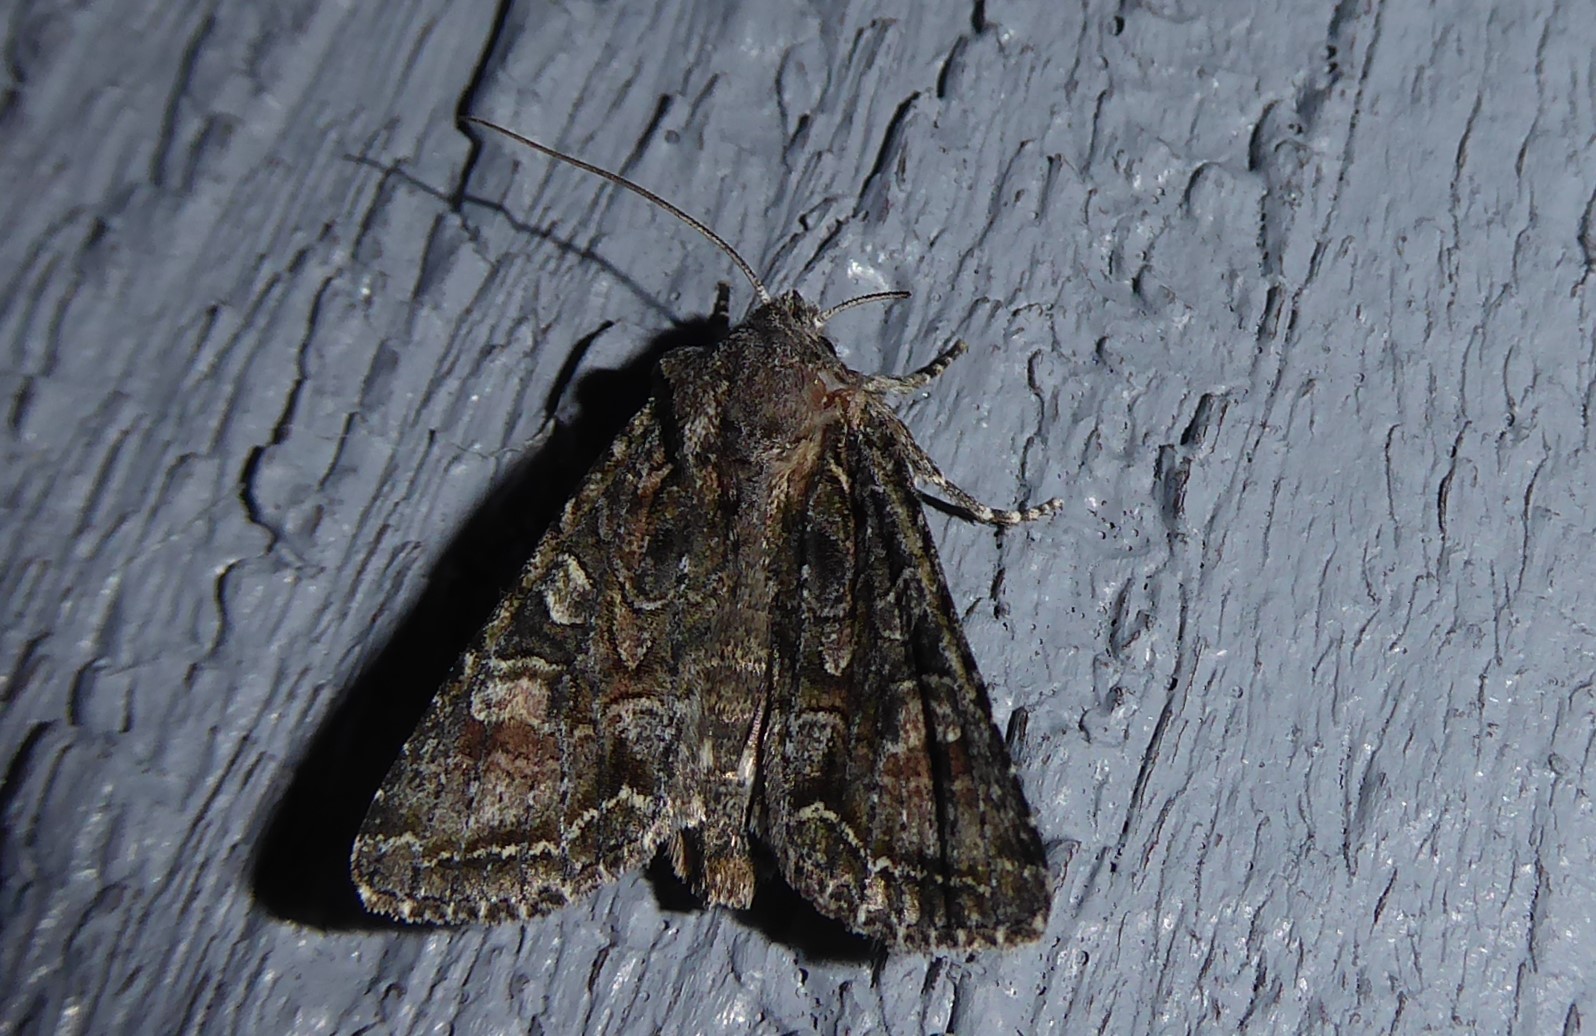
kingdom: Animalia
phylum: Arthropoda
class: Insecta
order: Lepidoptera
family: Noctuidae
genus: Ichneutica
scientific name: Ichneutica mutans
